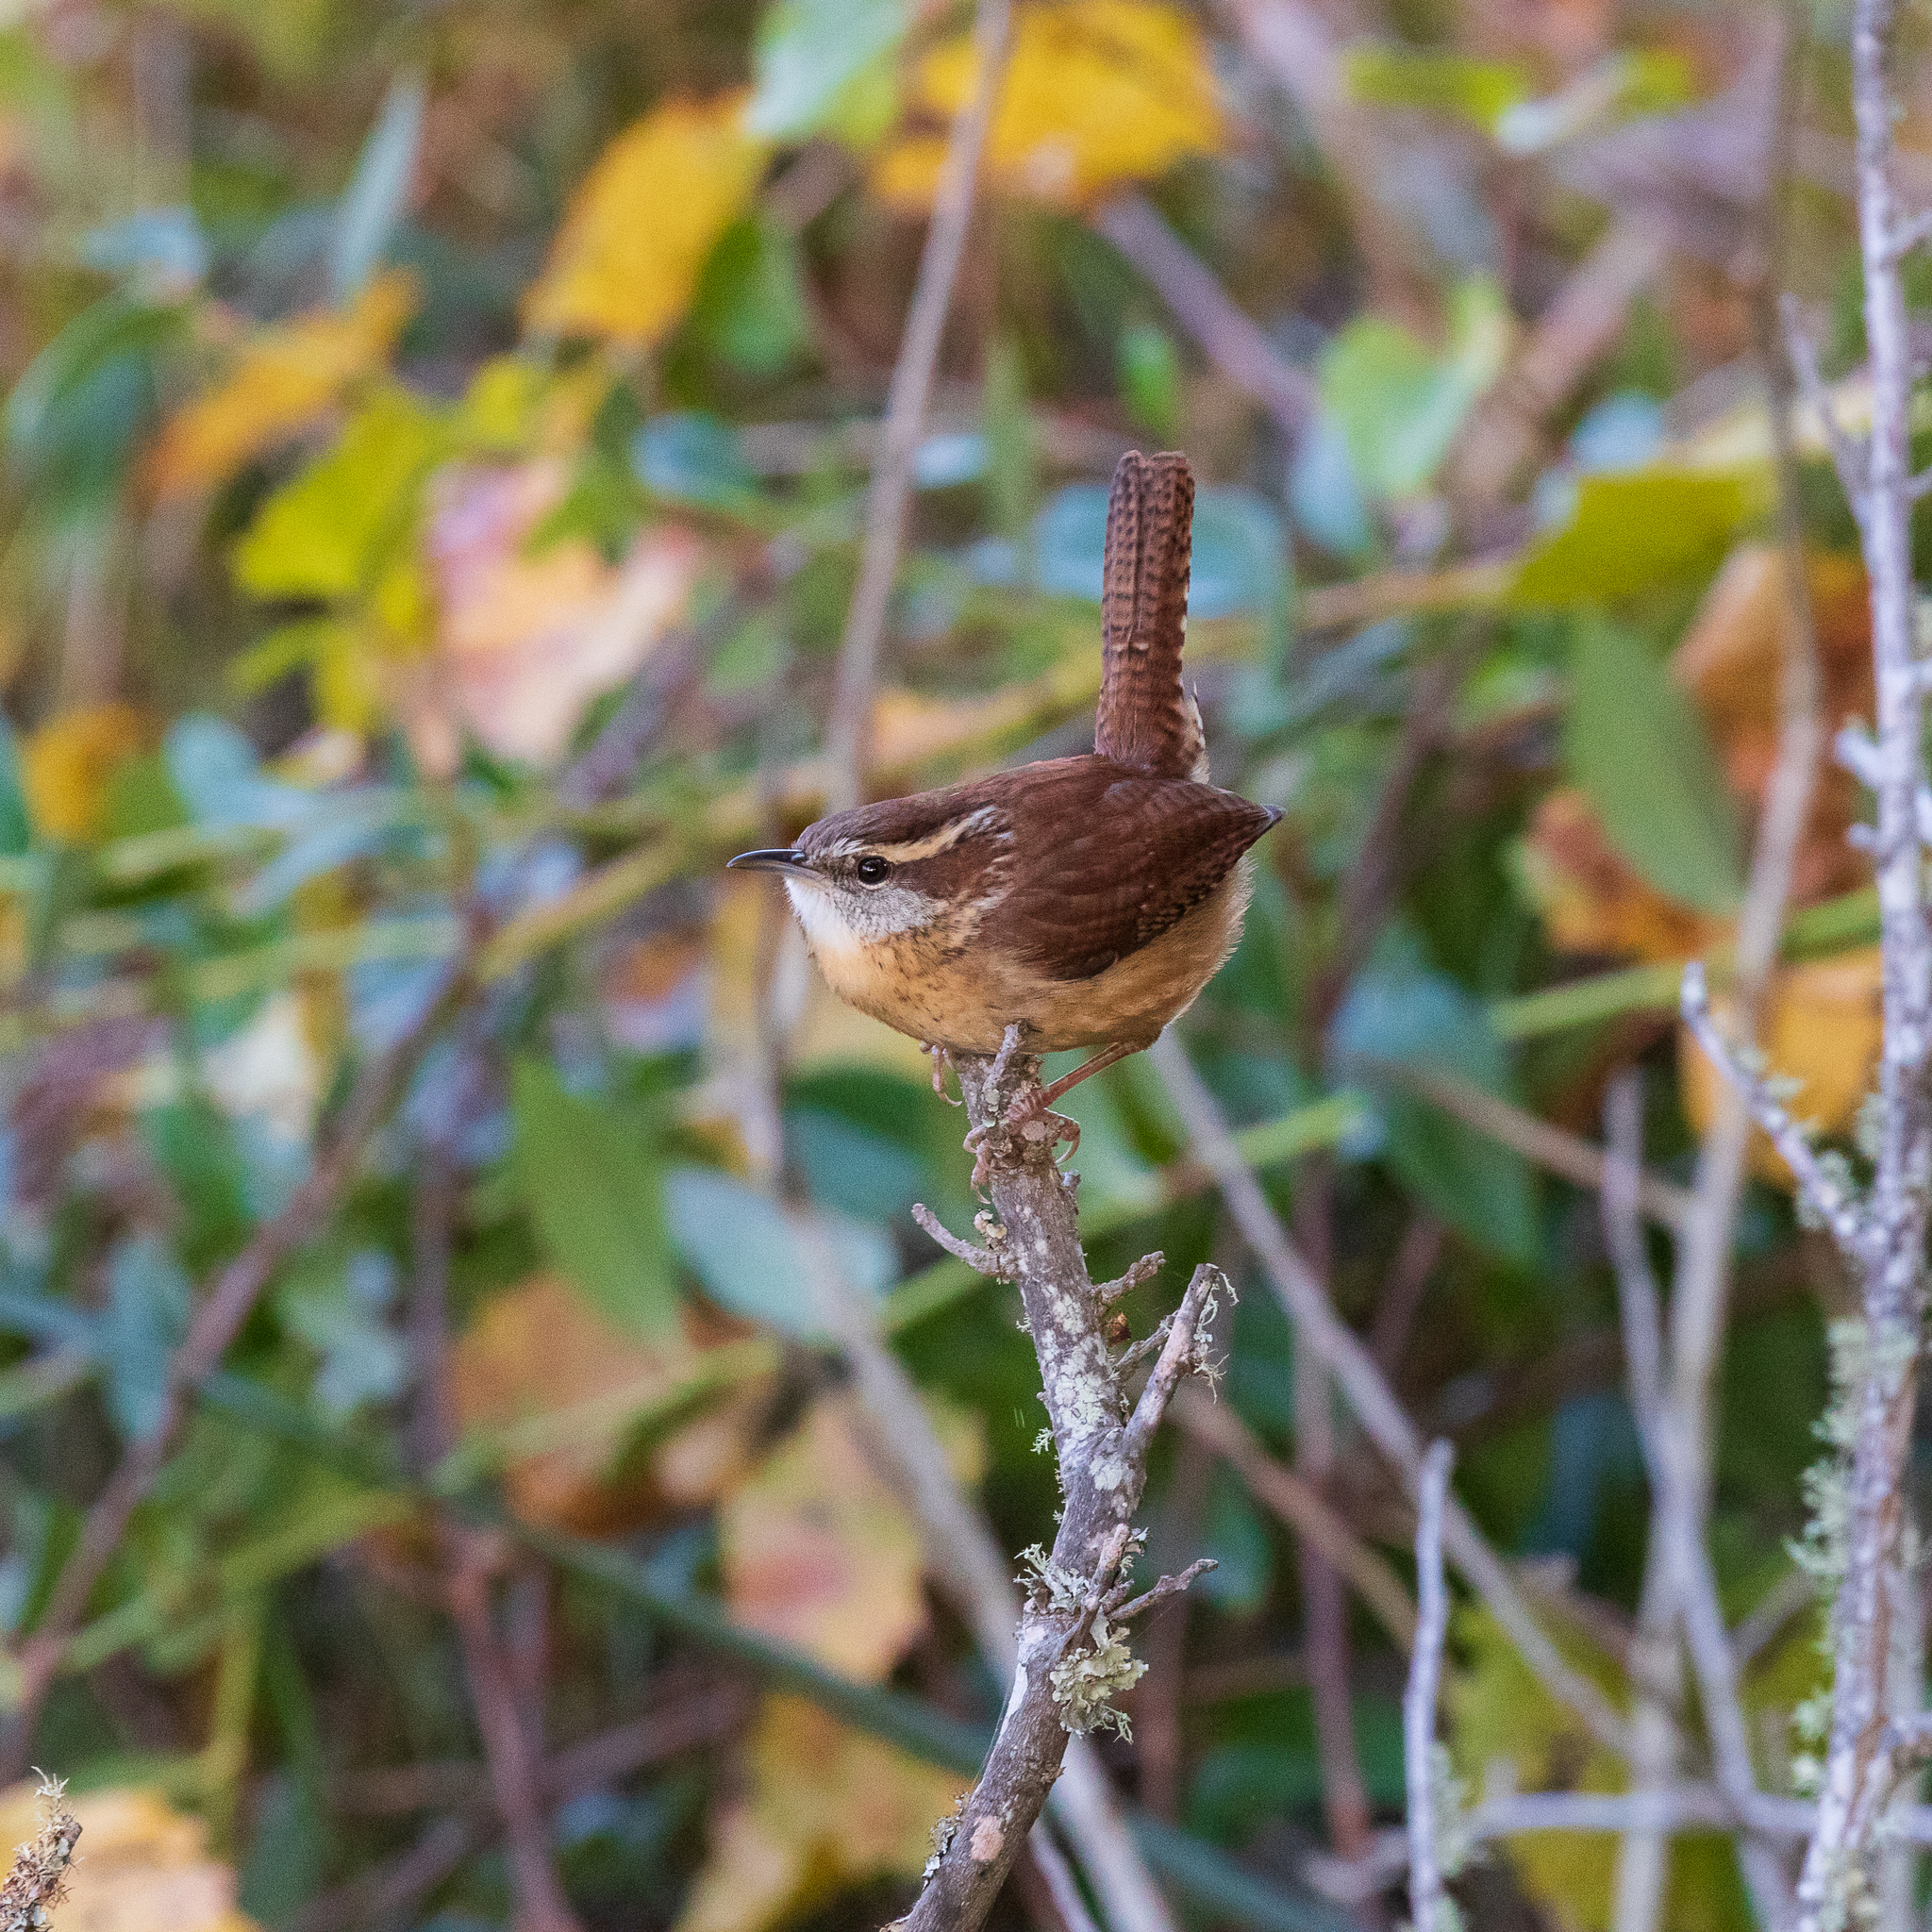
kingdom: Animalia
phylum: Chordata
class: Aves
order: Passeriformes
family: Troglodytidae
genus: Thryothorus
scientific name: Thryothorus ludovicianus
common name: Carolina wren
